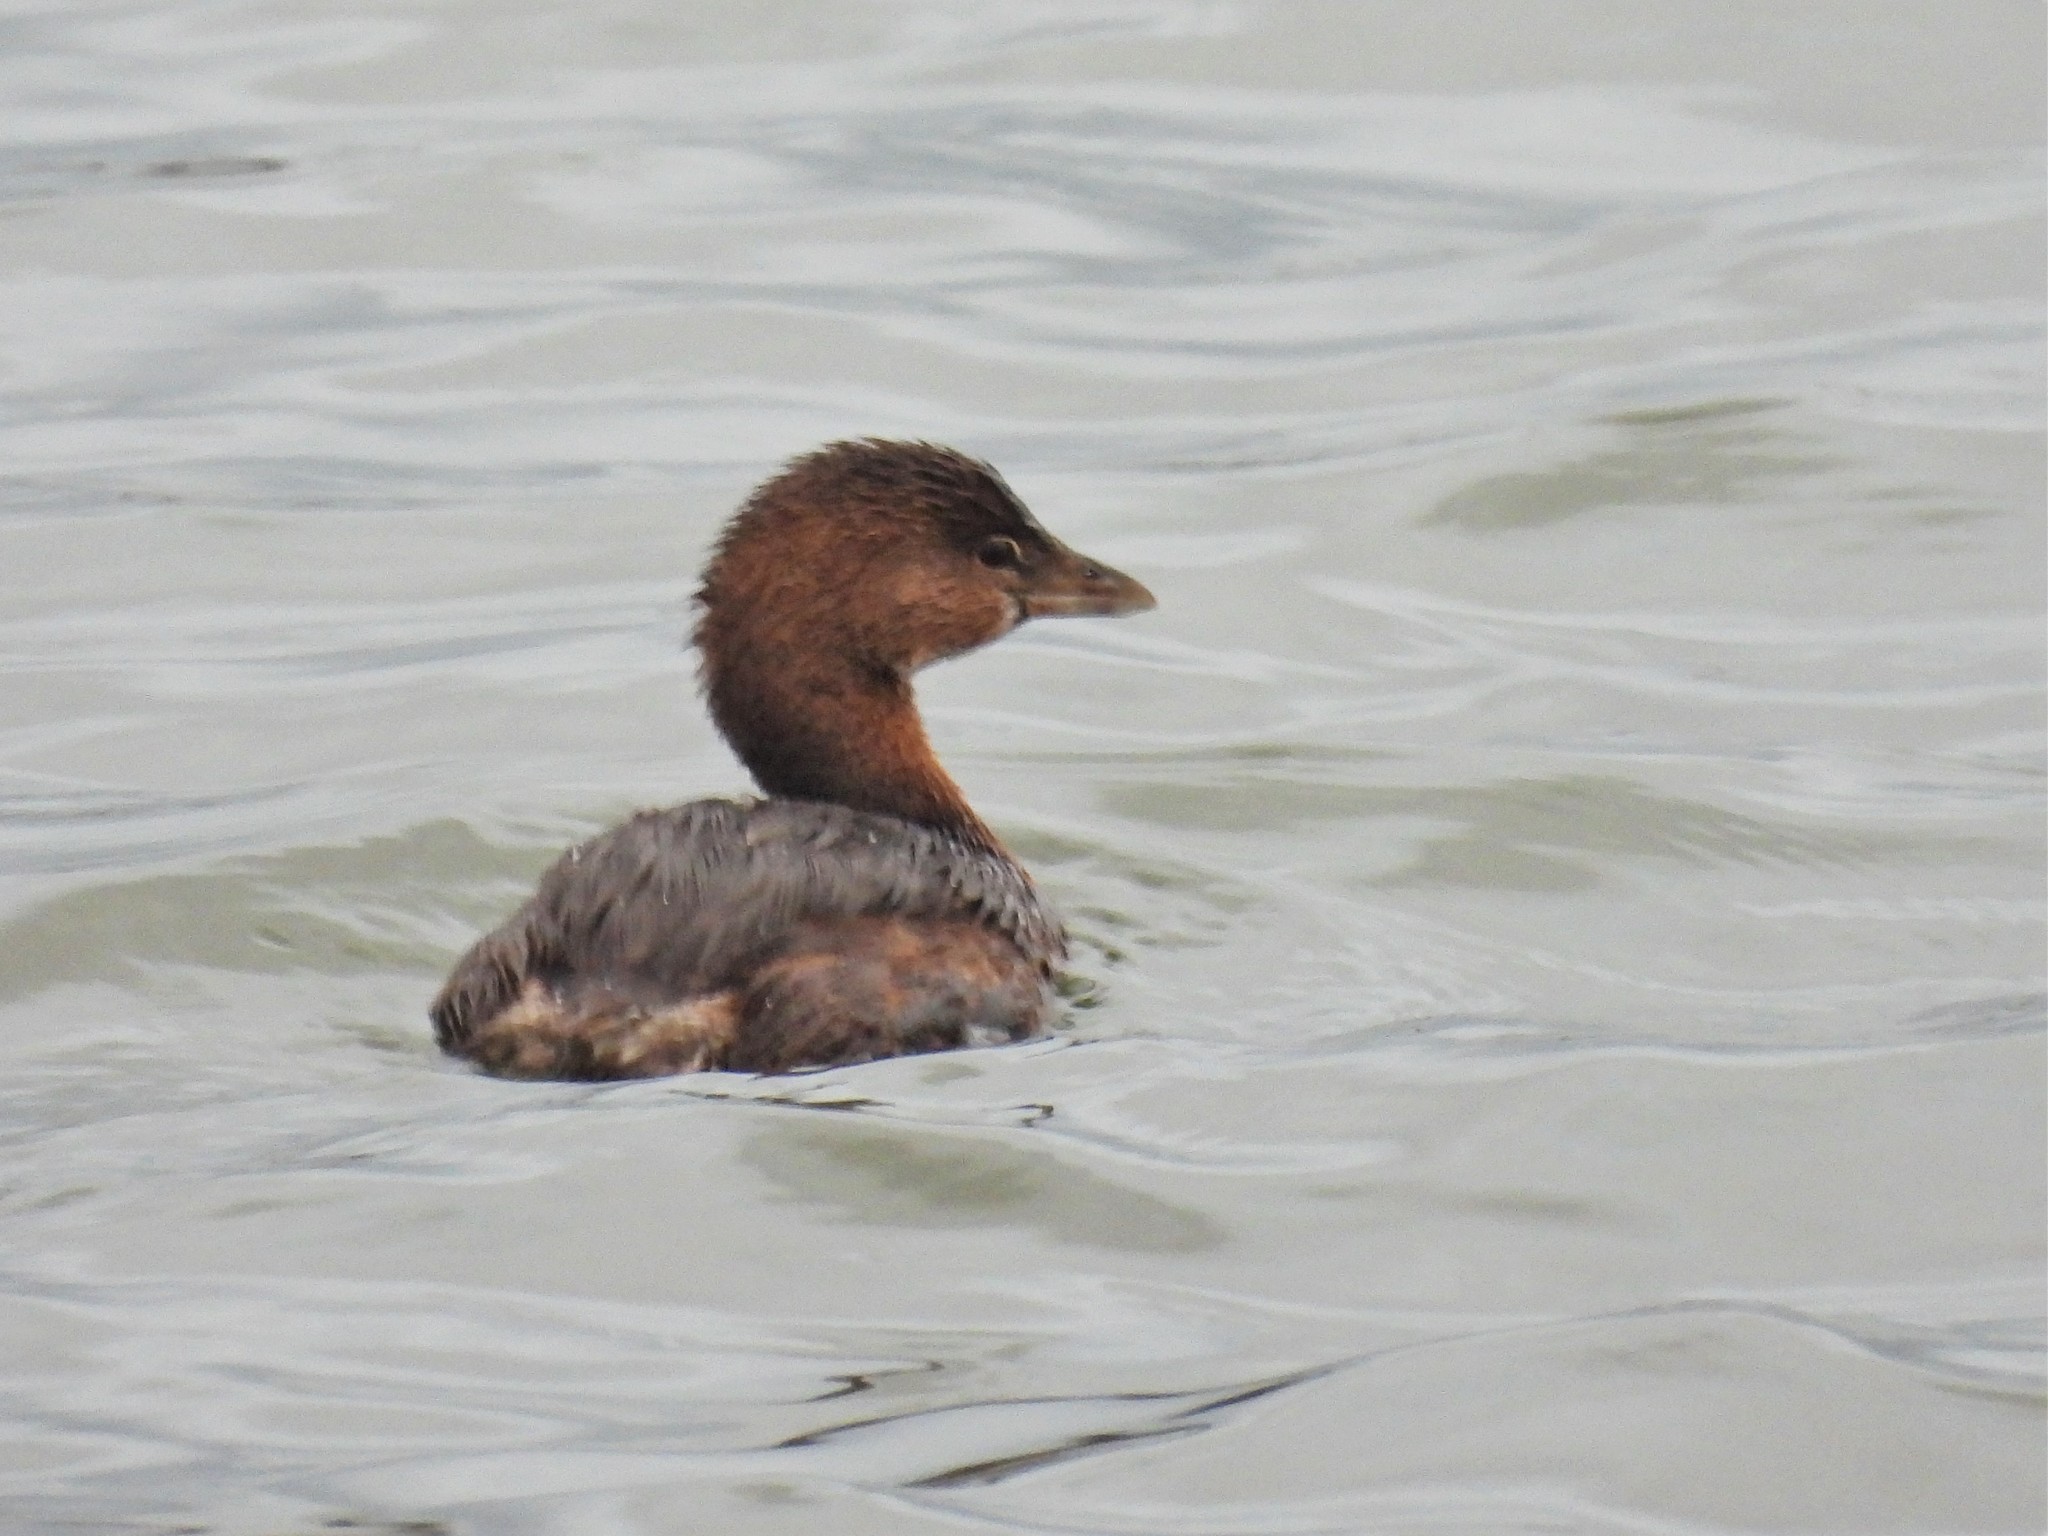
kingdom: Animalia
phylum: Chordata
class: Aves
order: Podicipediformes
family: Podicipedidae
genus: Podilymbus
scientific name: Podilymbus podiceps
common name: Pied-billed grebe
